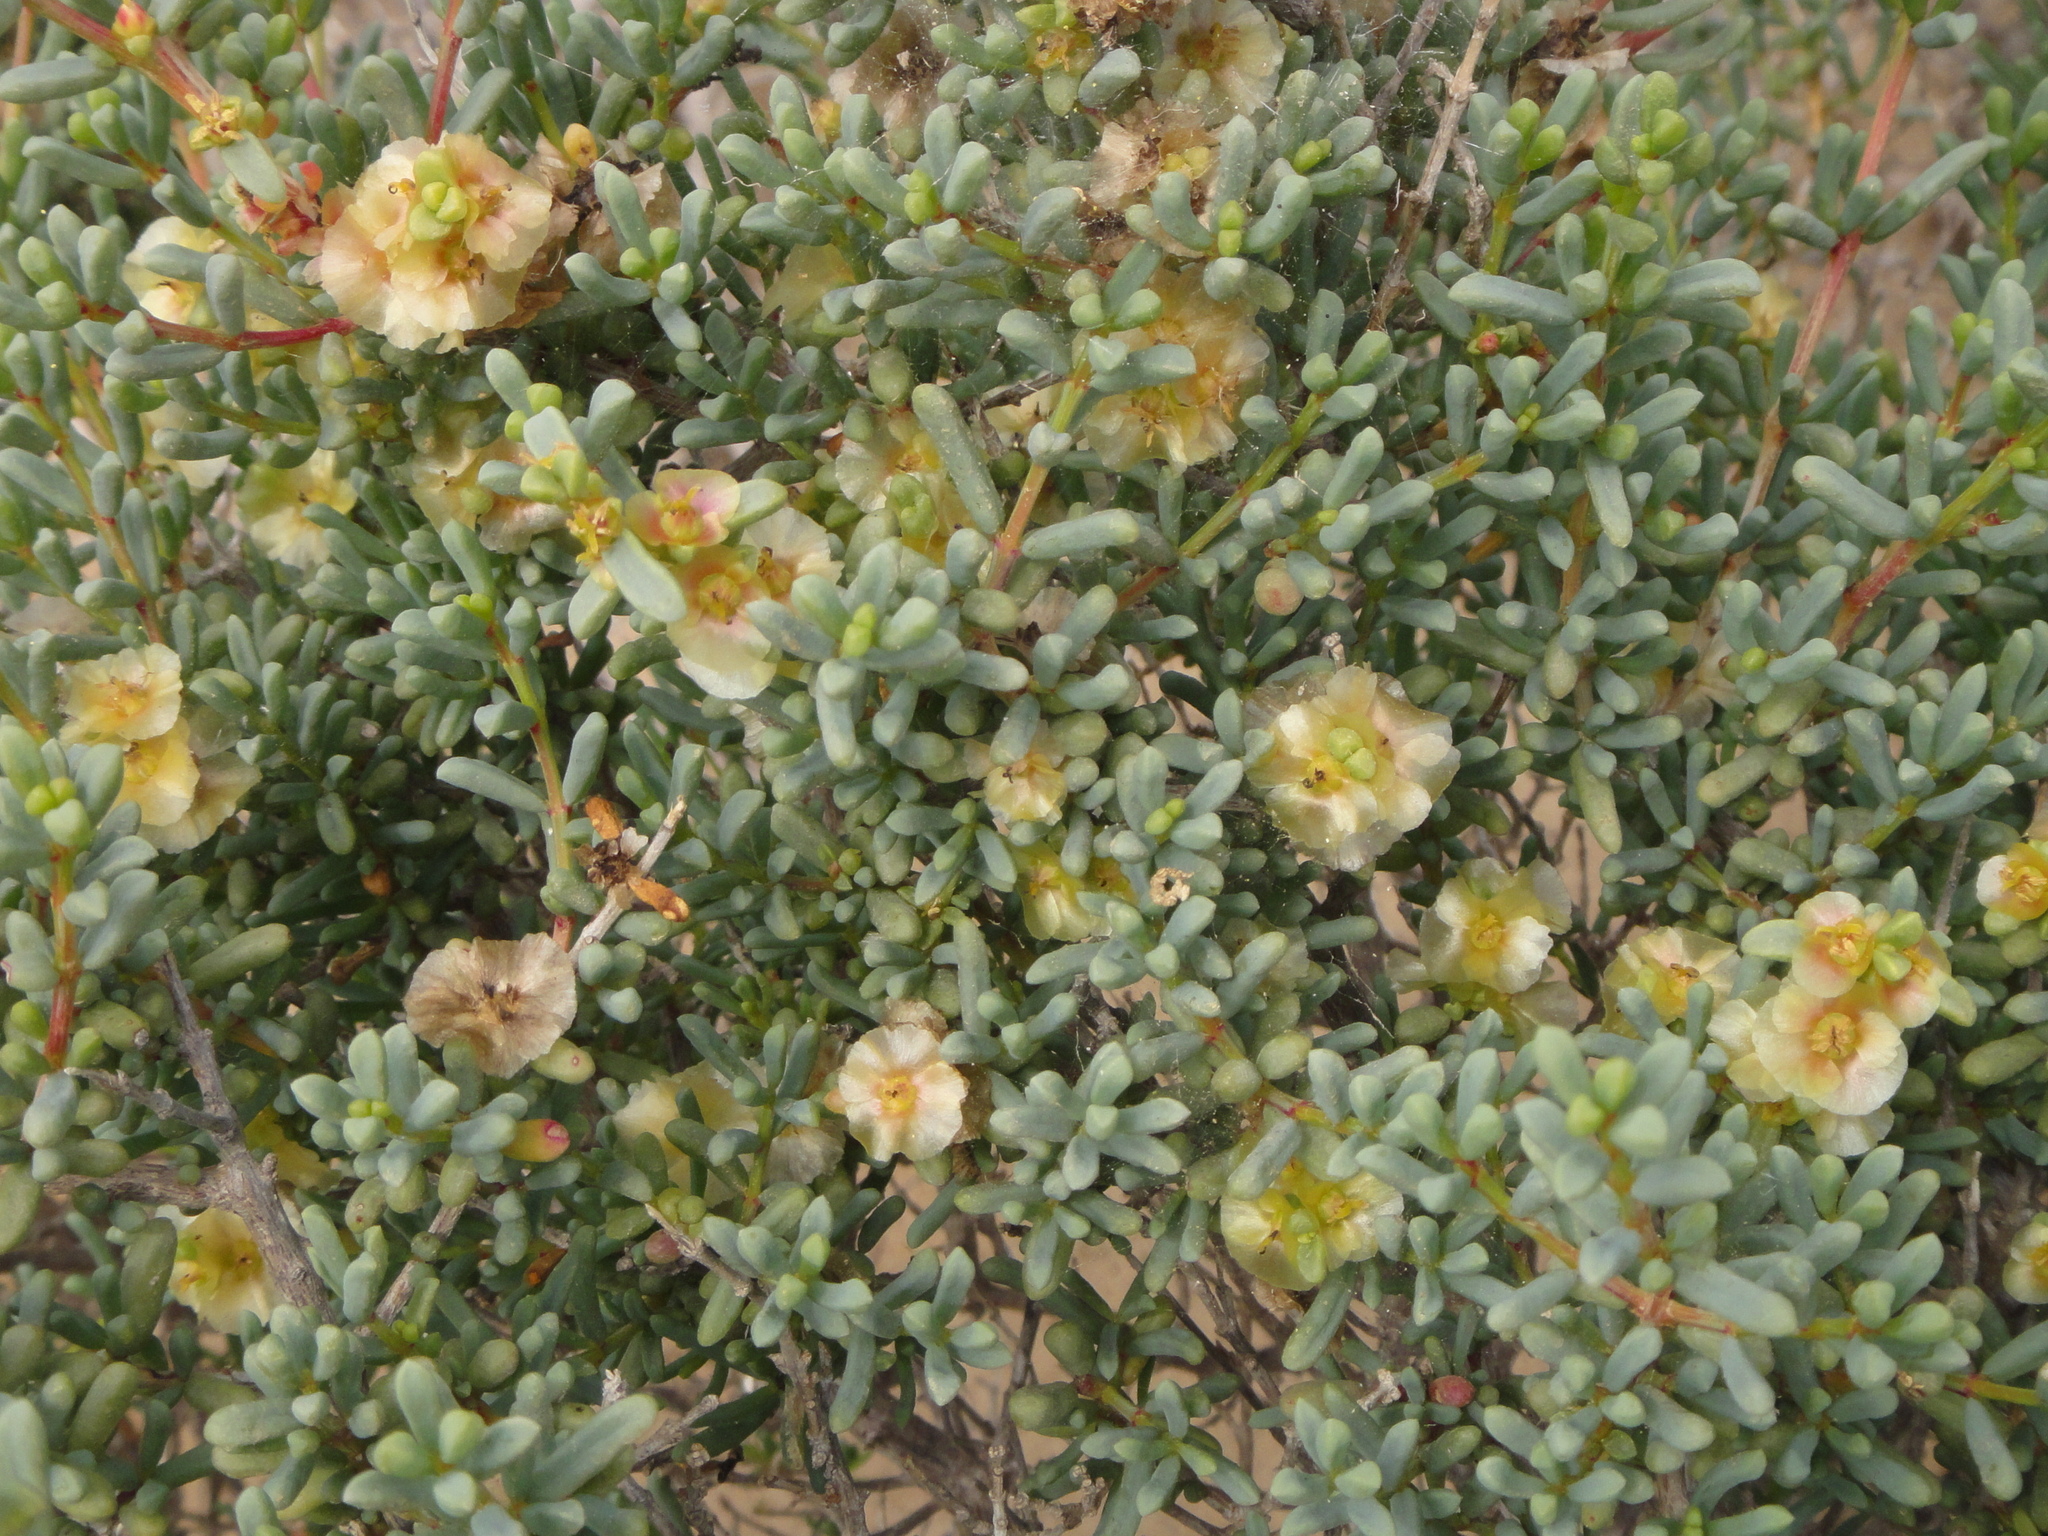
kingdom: Plantae
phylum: Tracheophyta
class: Magnoliopsida
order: Caryophyllales
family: Amaranthaceae
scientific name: Amaranthaceae
